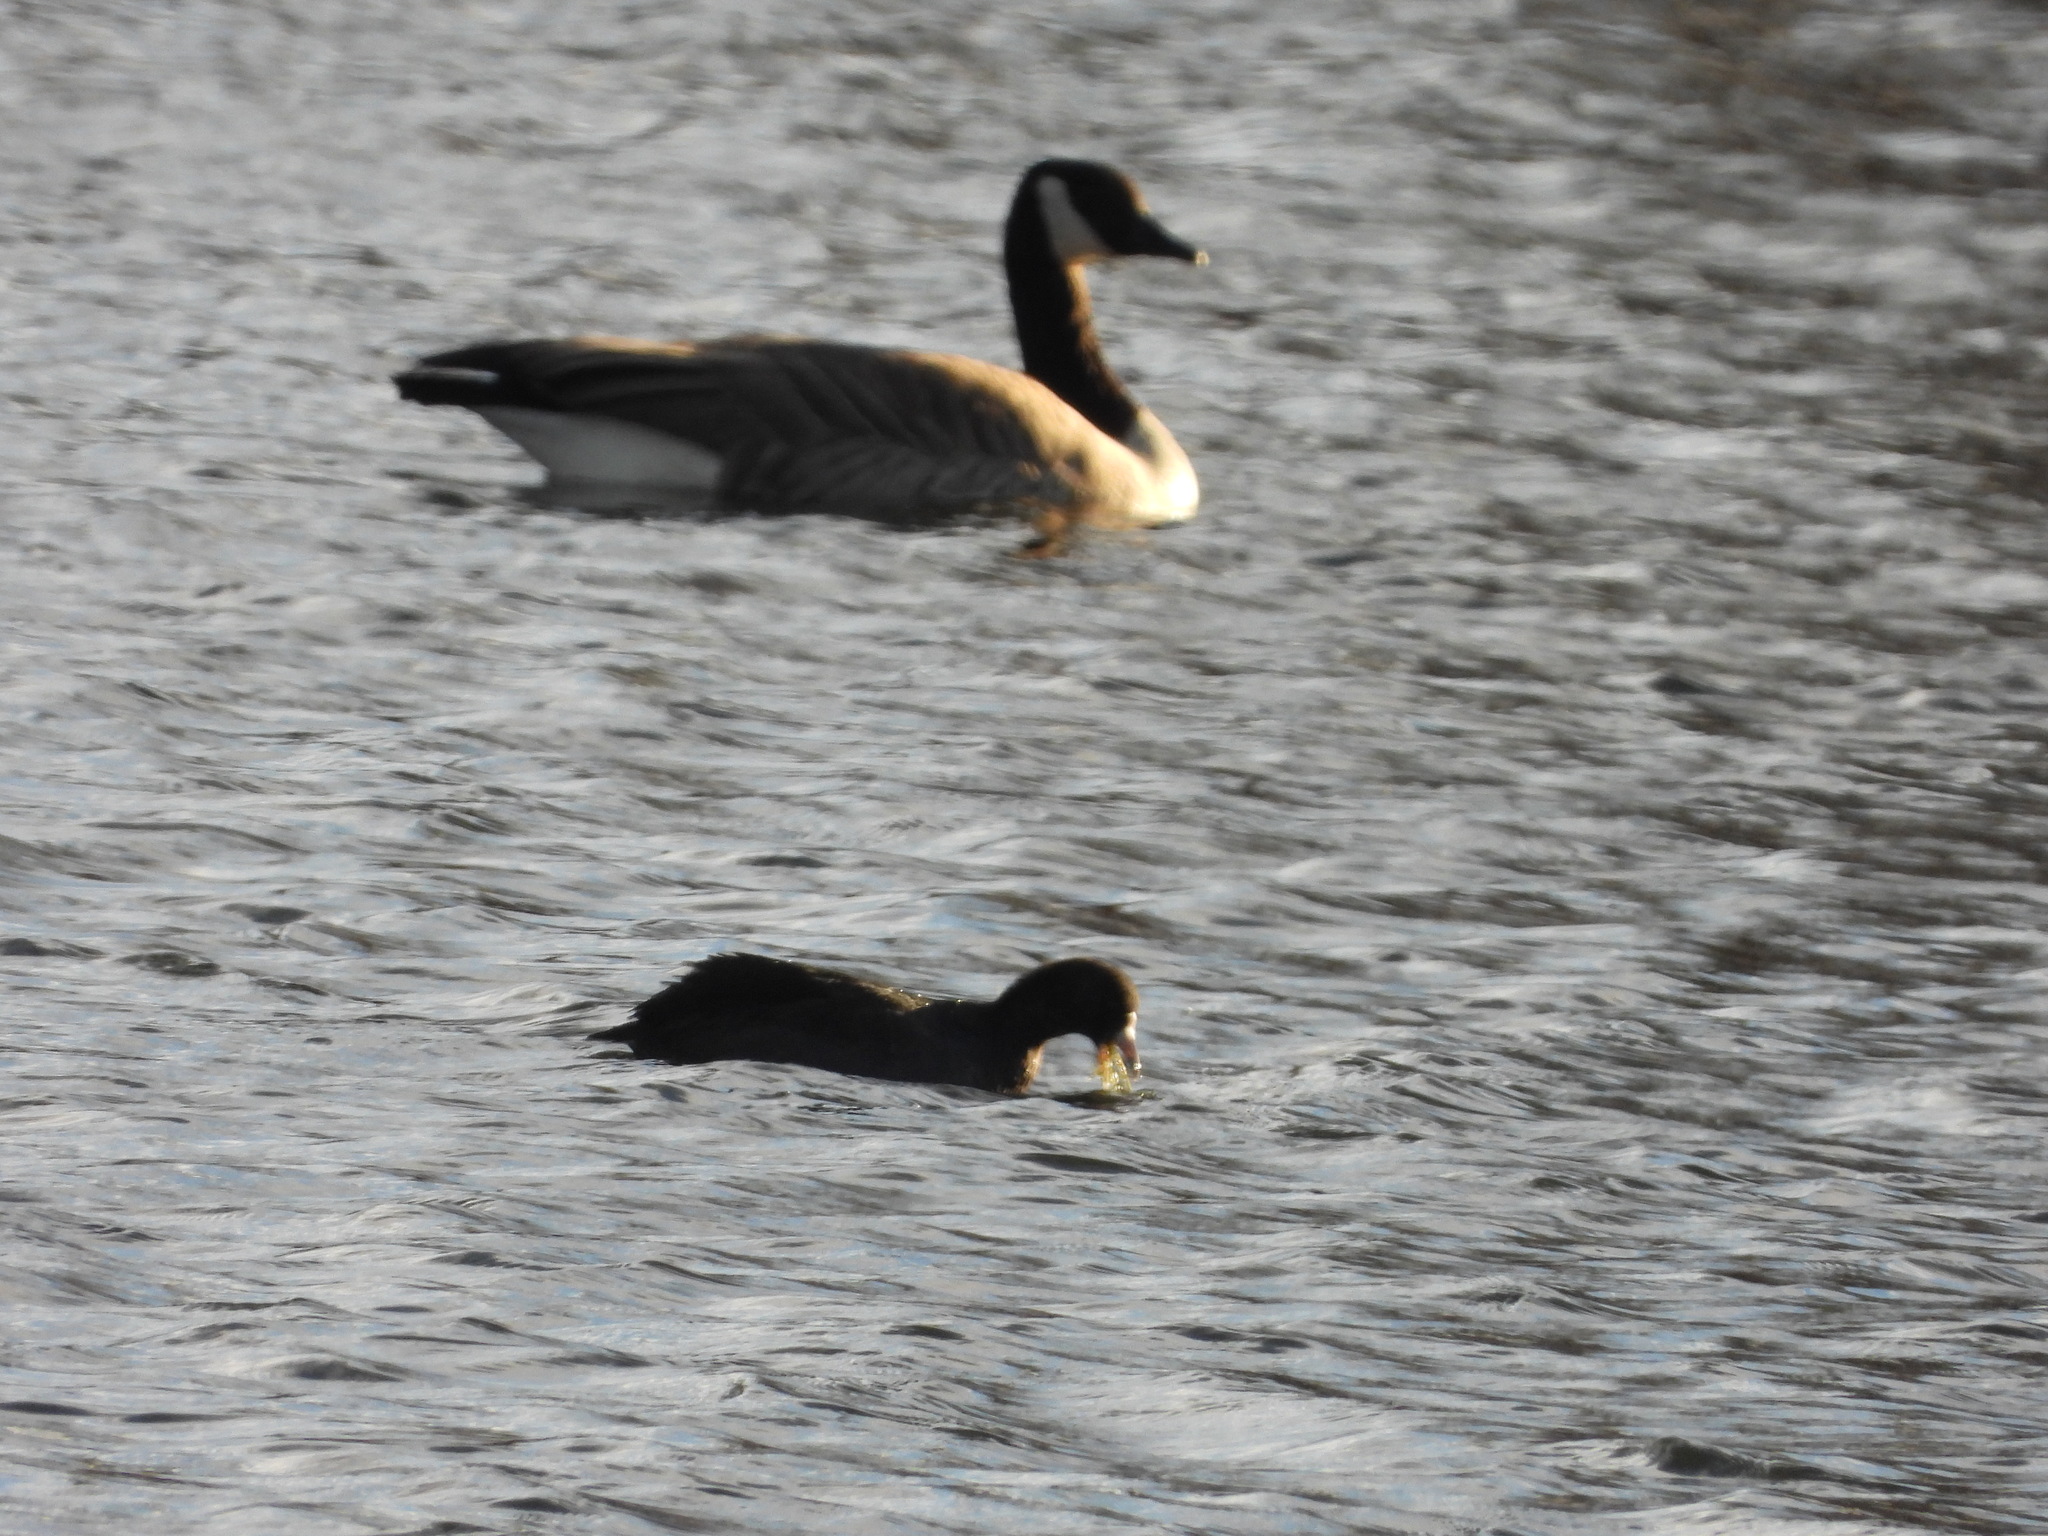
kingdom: Animalia
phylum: Chordata
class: Aves
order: Gruiformes
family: Rallidae
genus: Fulica
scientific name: Fulica americana
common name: American coot
